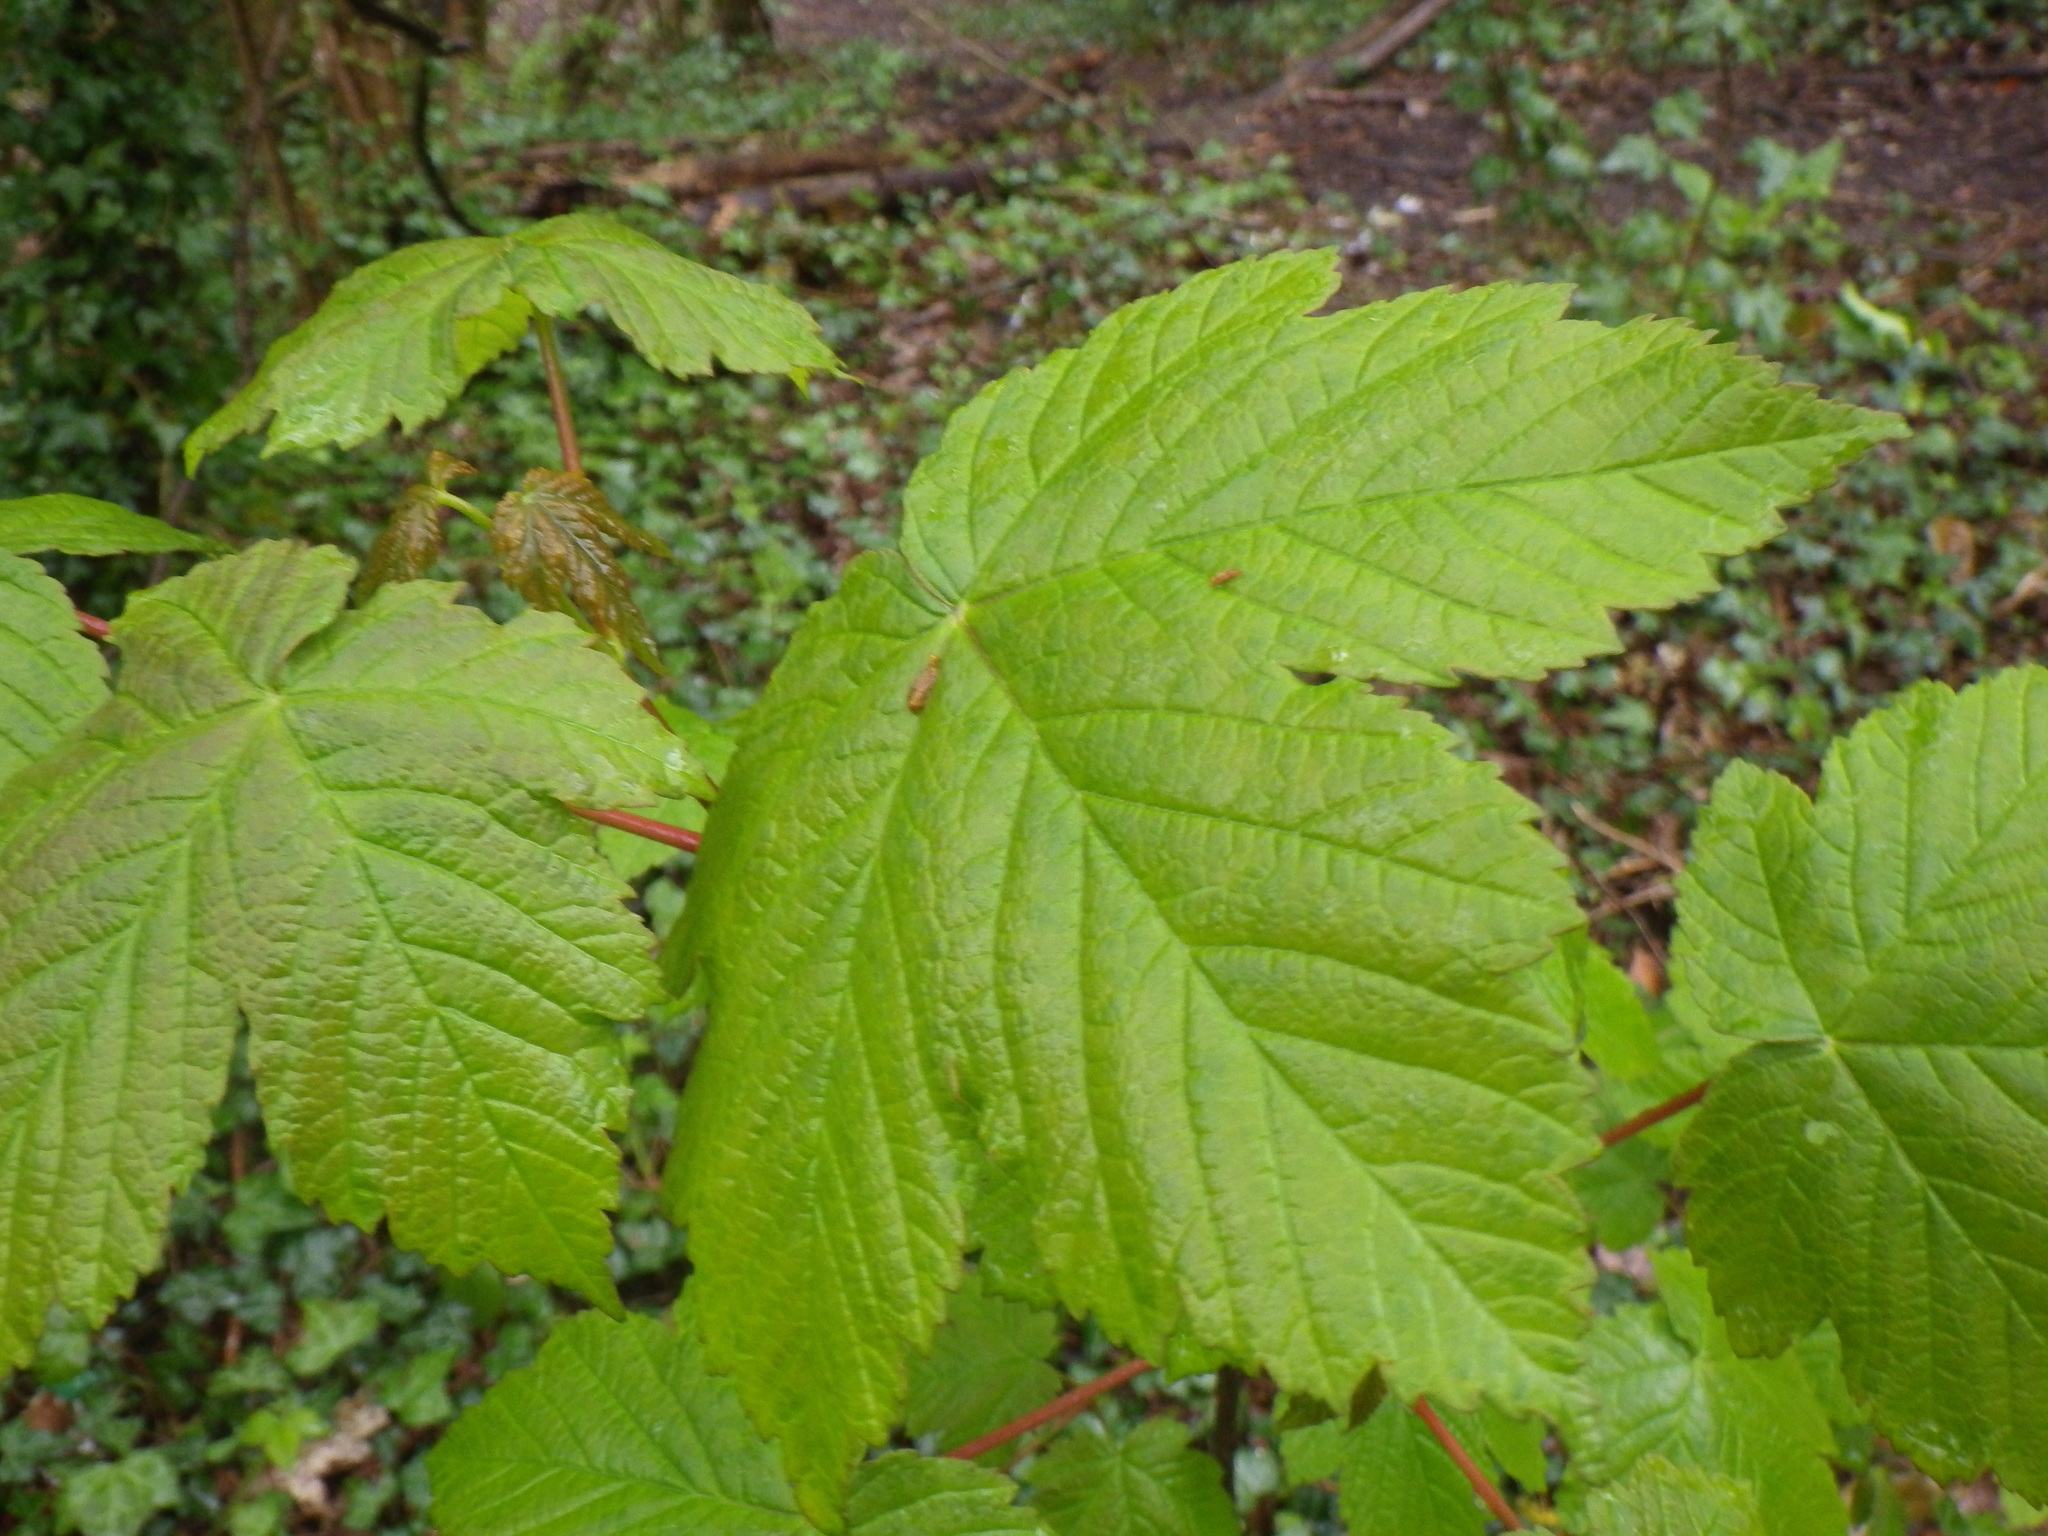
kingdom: Plantae
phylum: Tracheophyta
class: Magnoliopsida
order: Sapindales
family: Sapindaceae
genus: Acer
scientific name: Acer pseudoplatanus
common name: Sycamore
